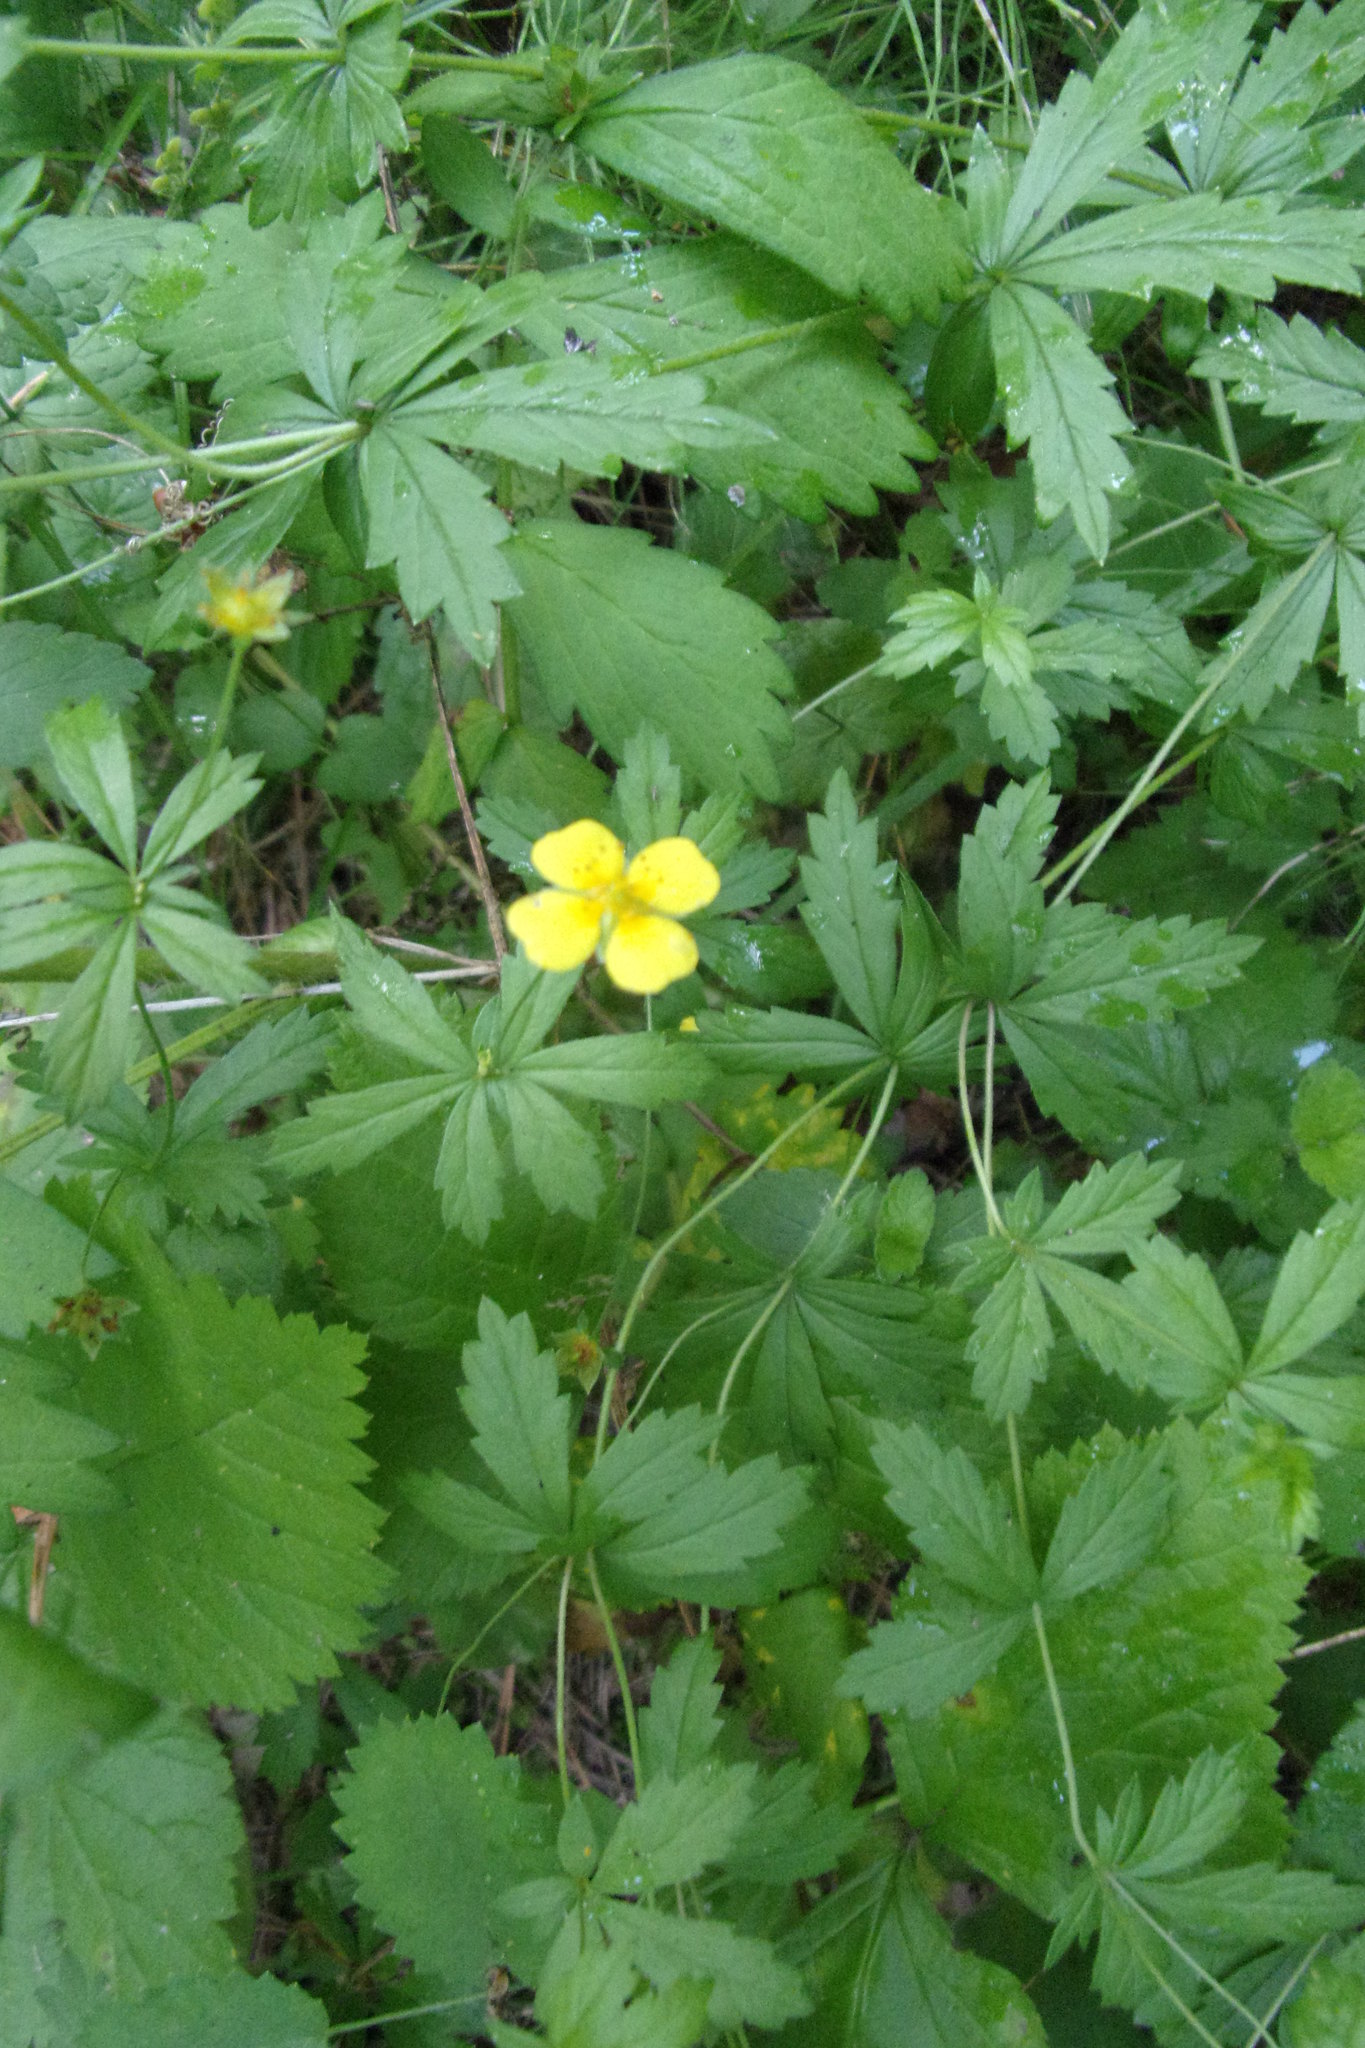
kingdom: Plantae
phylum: Tracheophyta
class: Magnoliopsida
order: Rosales
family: Rosaceae
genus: Potentilla
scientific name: Potentilla erecta
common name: Tormentil
